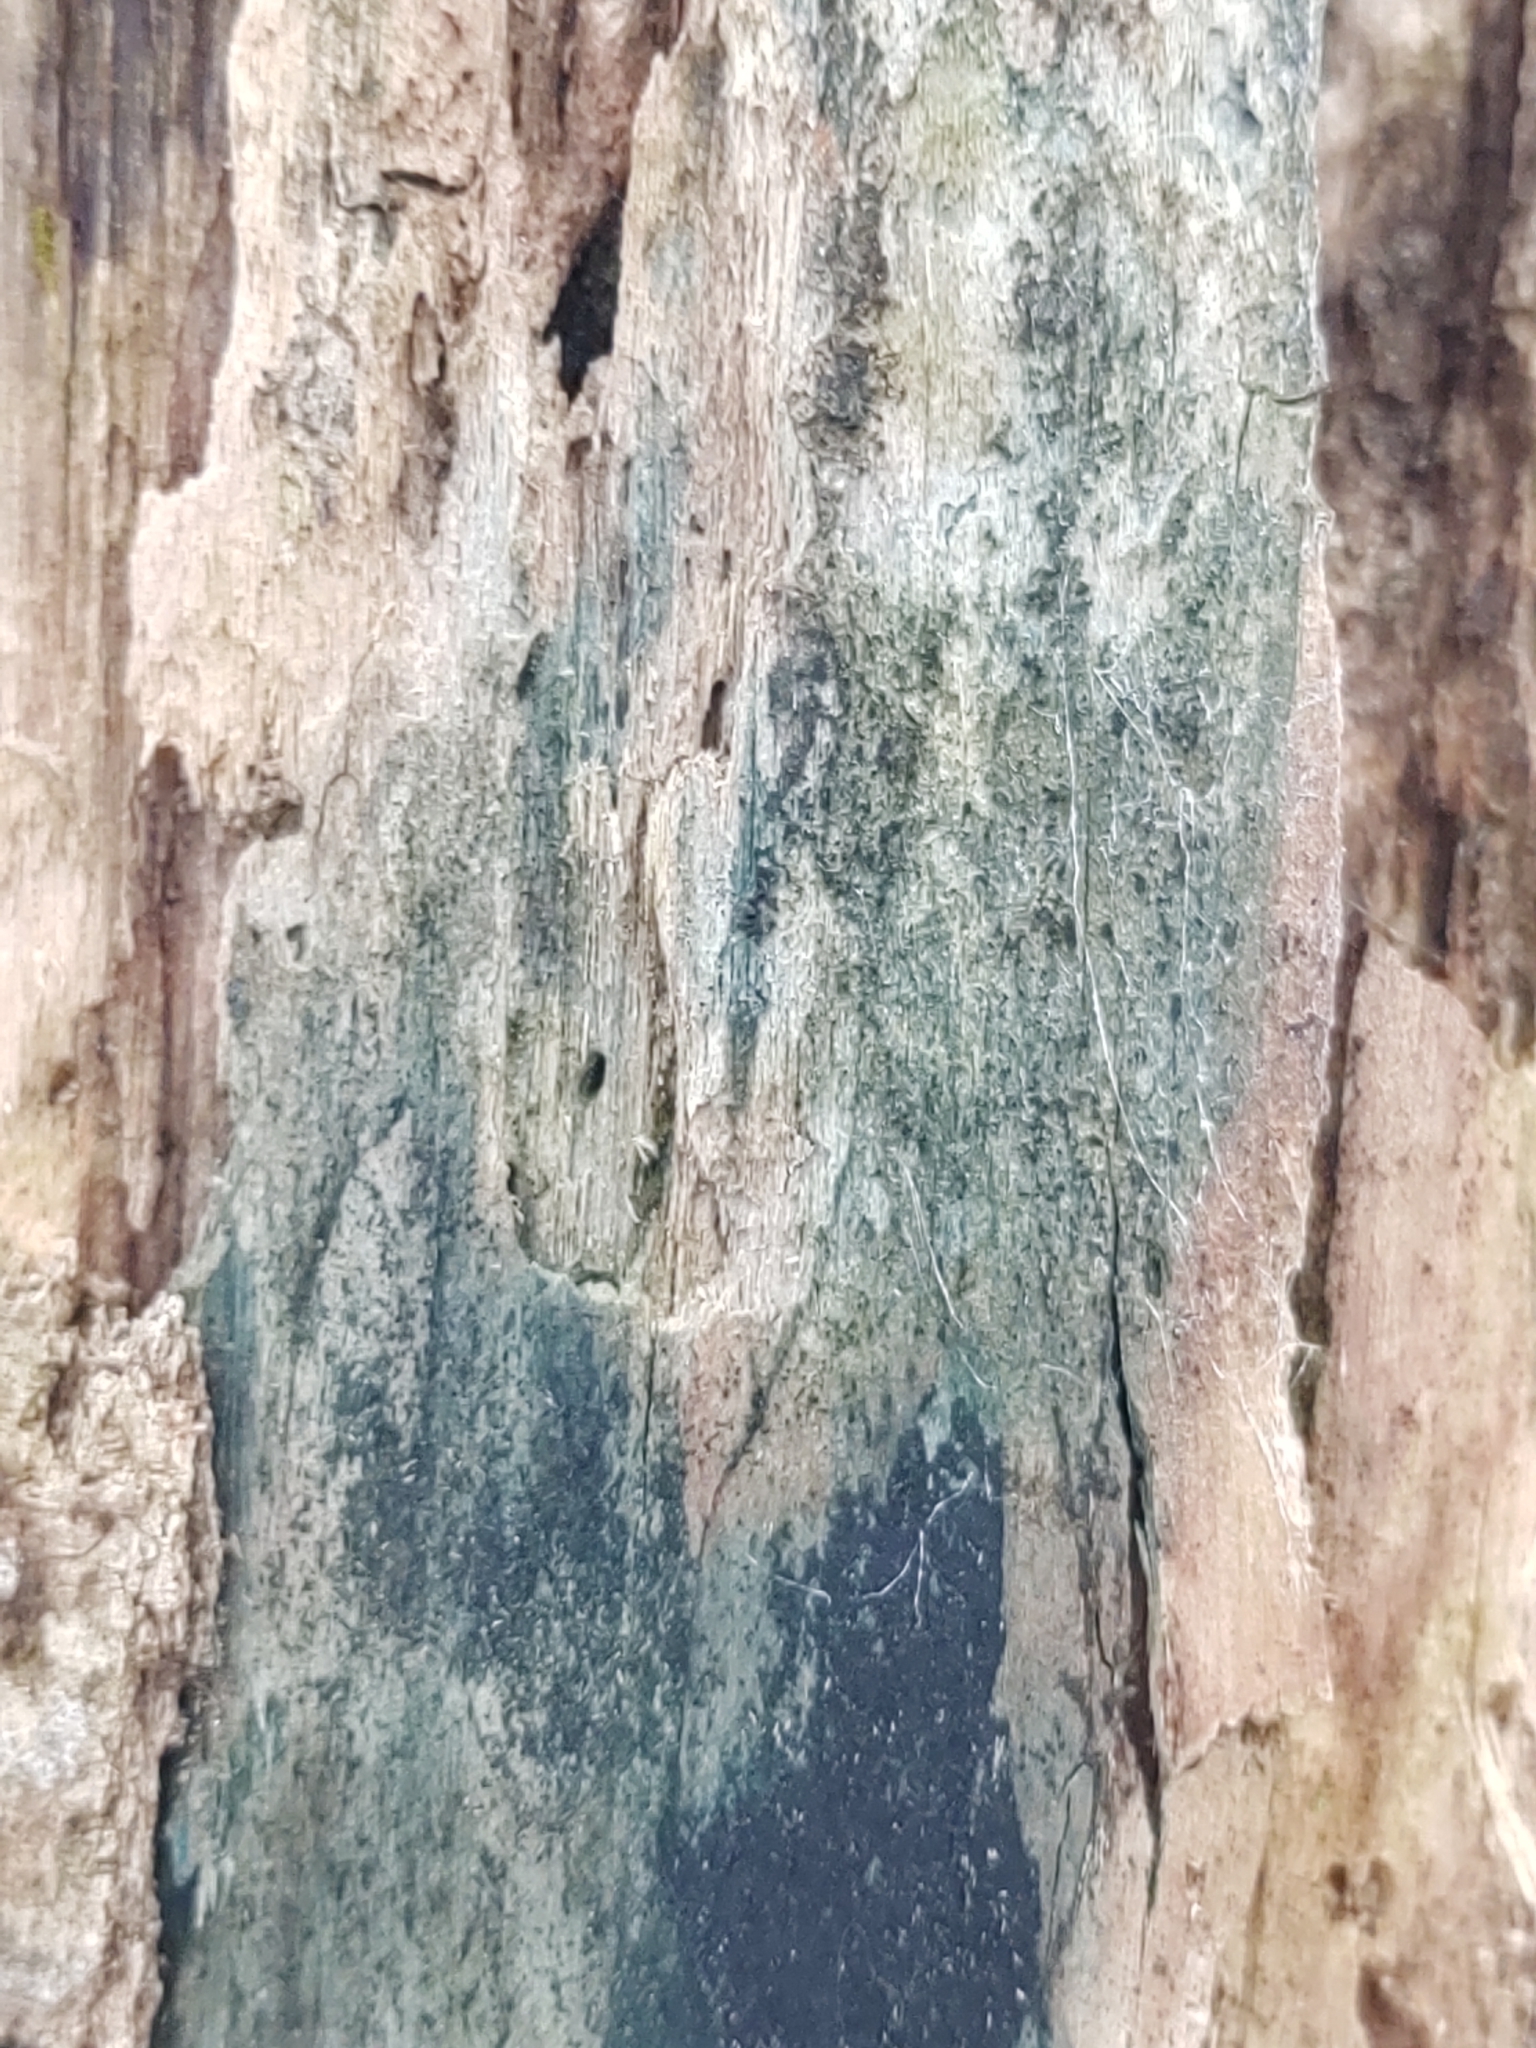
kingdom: Fungi
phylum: Ascomycota
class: Leotiomycetes
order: Helotiales
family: Chlorociboriaceae
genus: Chlorociboria
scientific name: Chlorociboria
